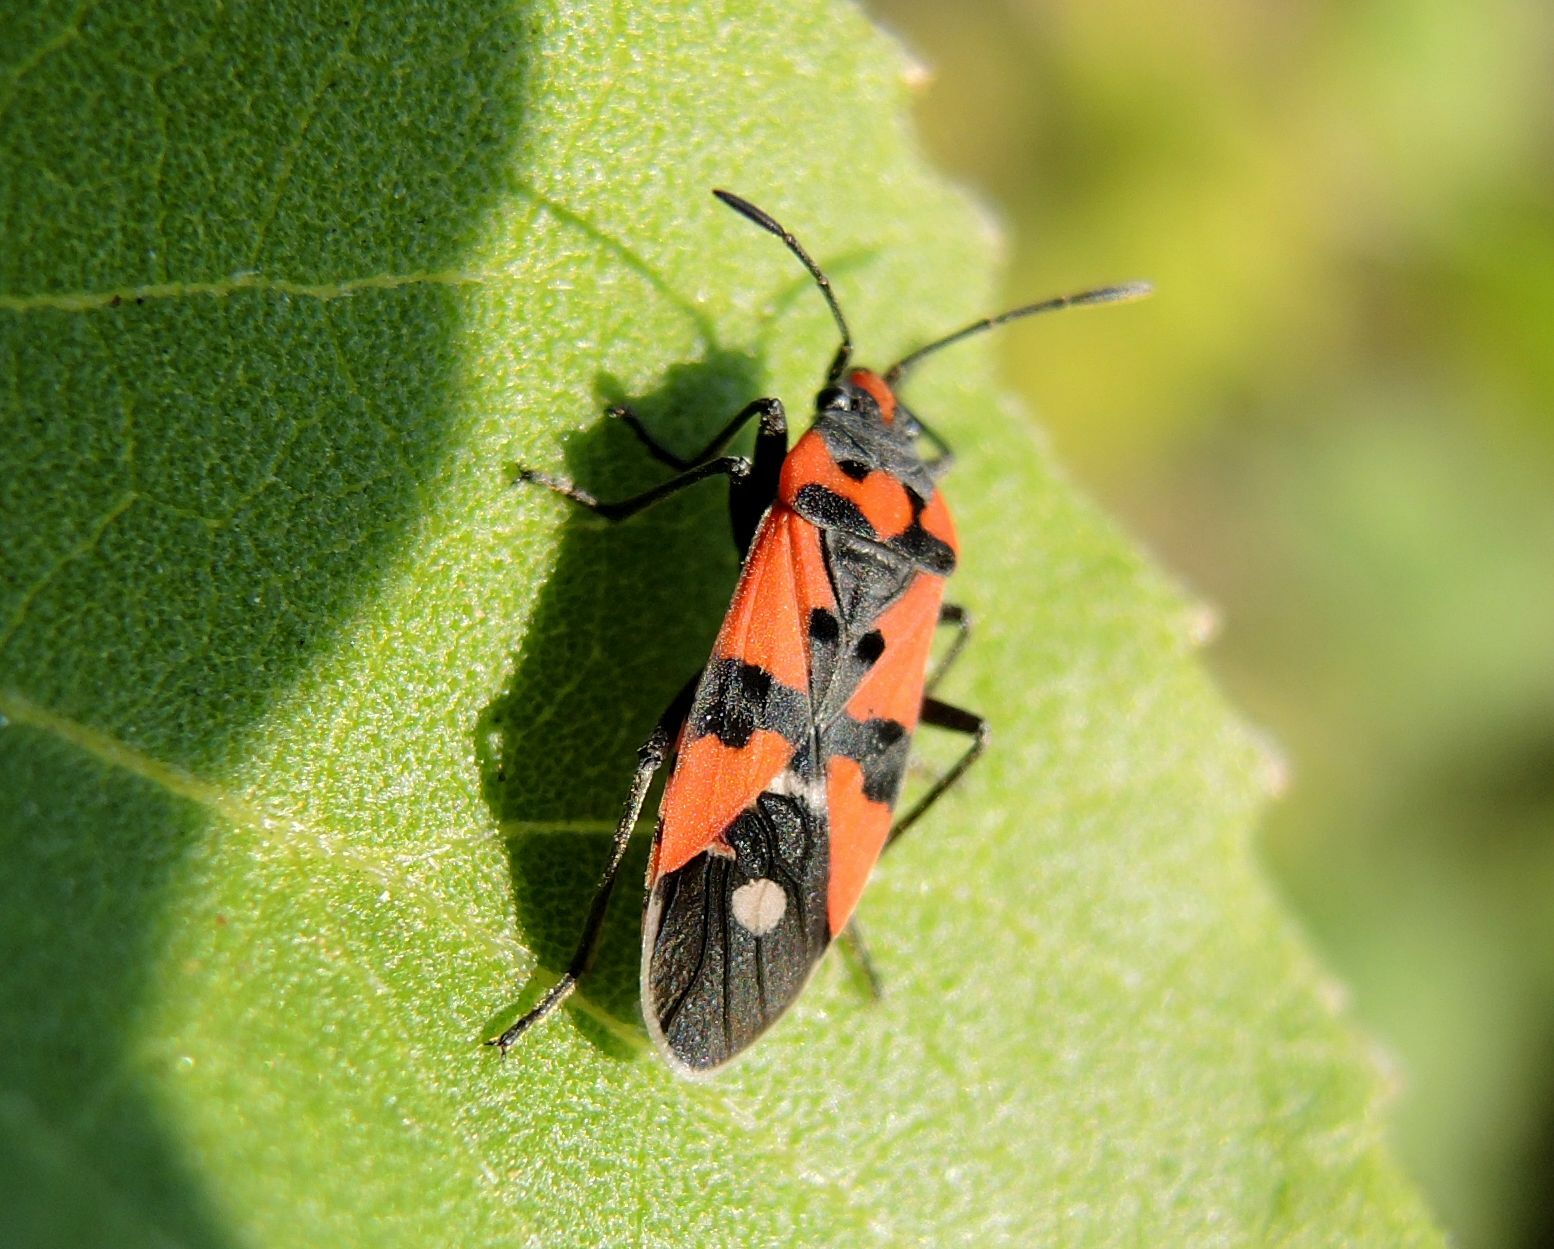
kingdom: Animalia
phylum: Arthropoda
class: Insecta
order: Hemiptera
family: Lygaeidae
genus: Lygaeus
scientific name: Lygaeus equestris
